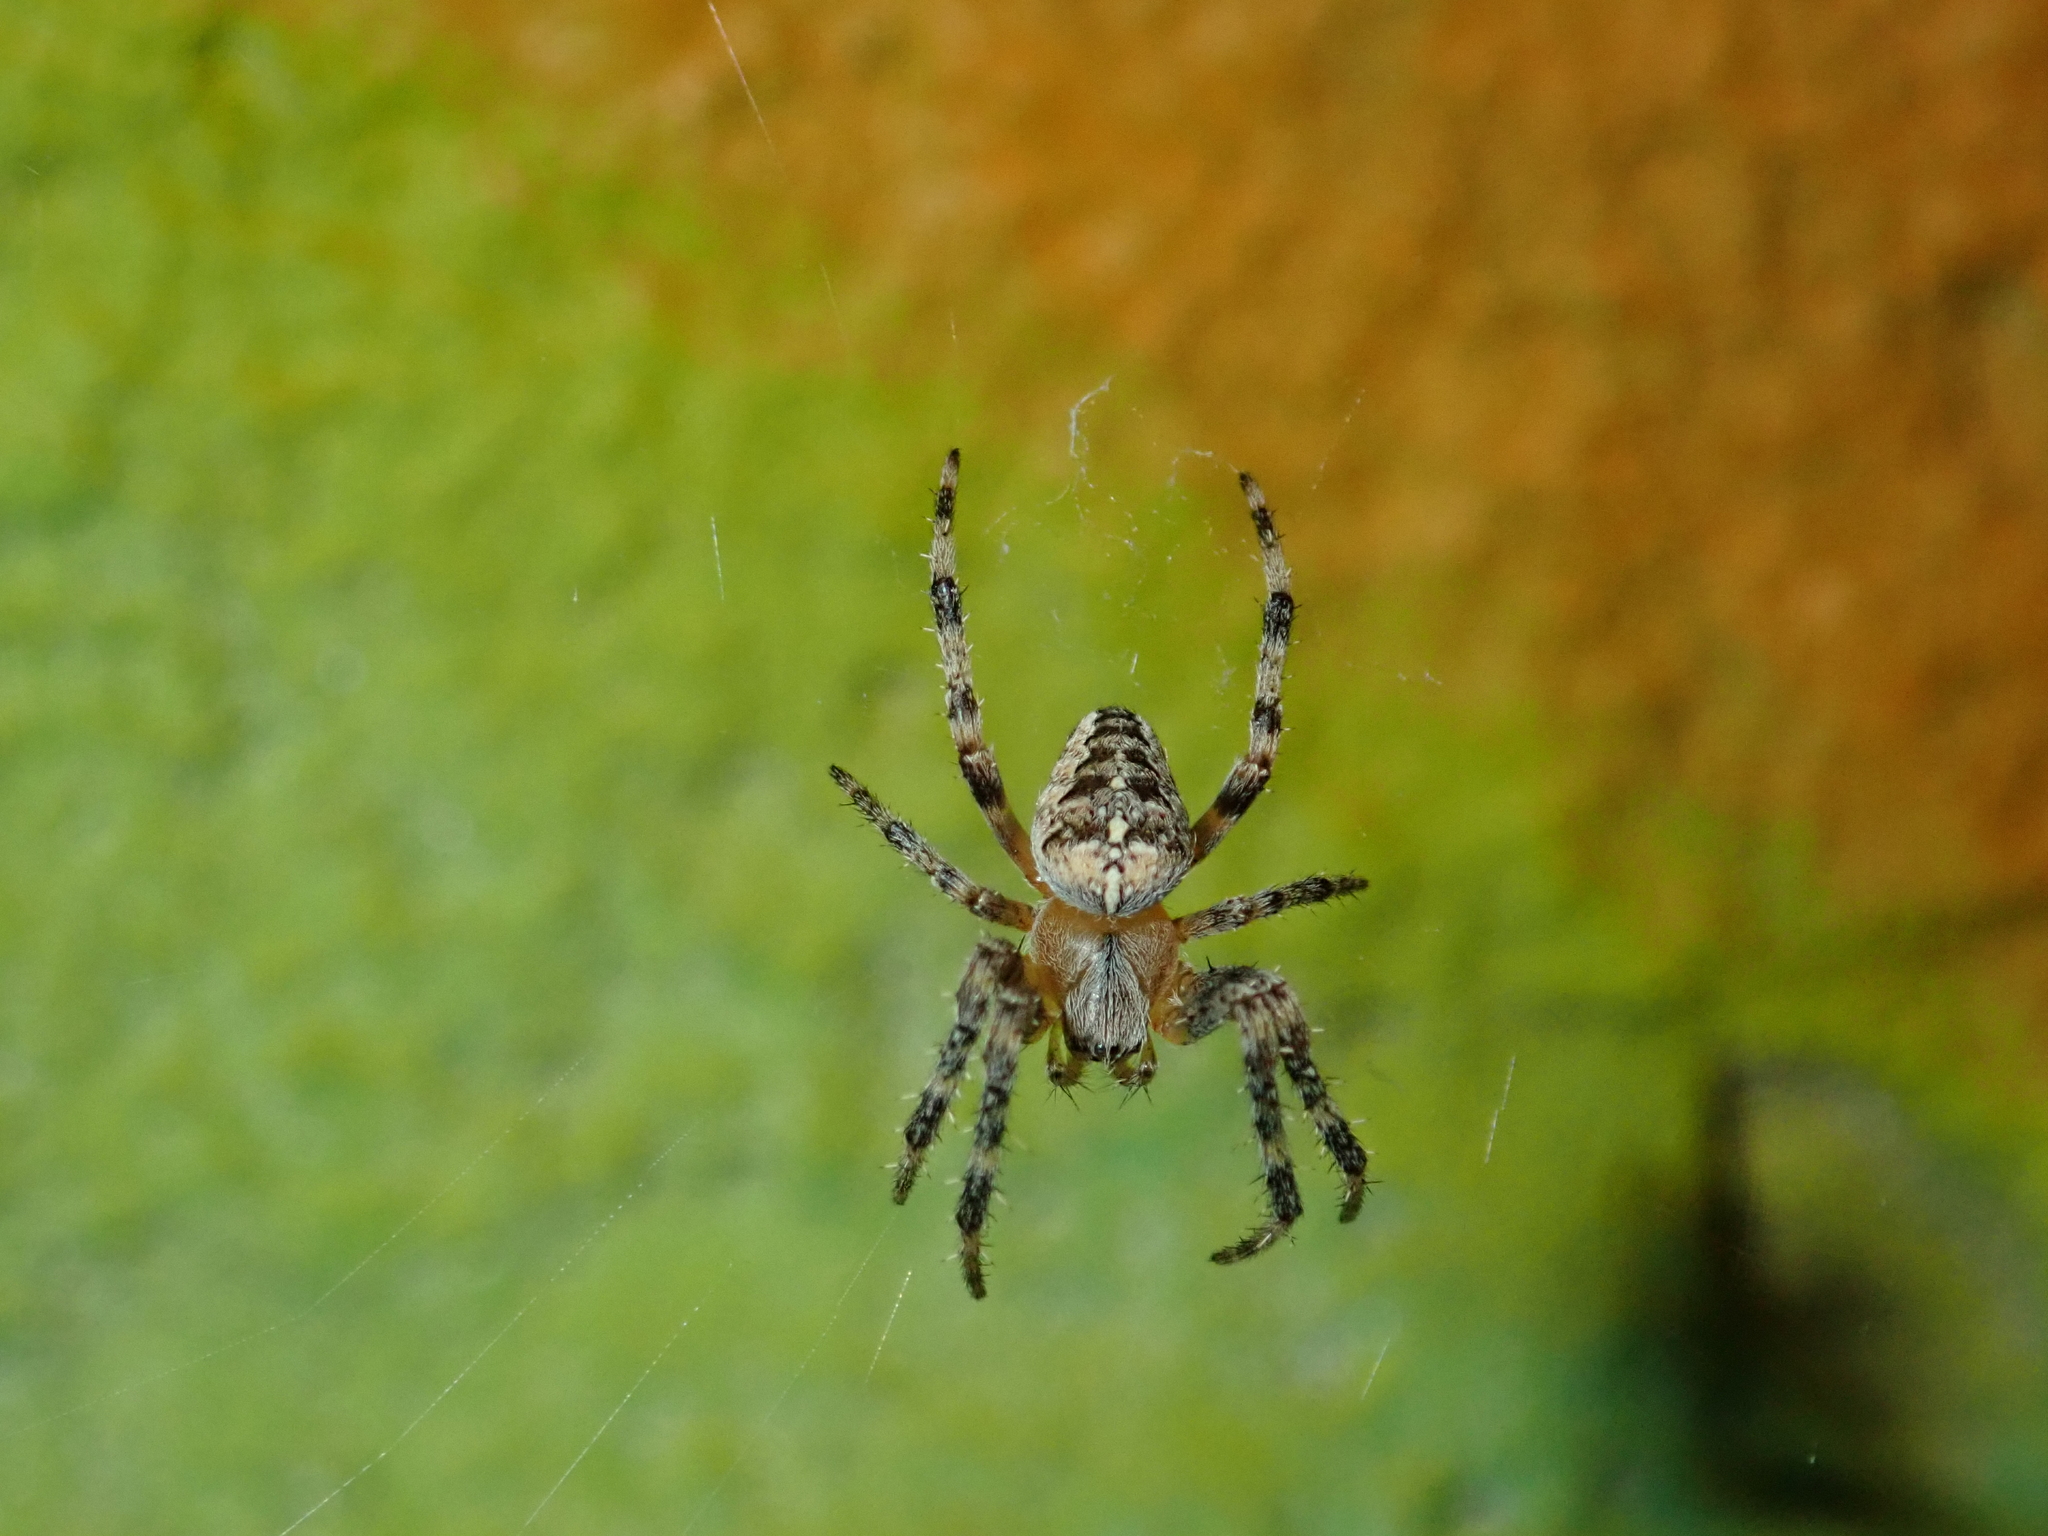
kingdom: Animalia
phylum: Arthropoda
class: Arachnida
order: Araneae
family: Araneidae
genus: Araneus
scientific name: Araneus diadematus
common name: Cross orbweaver
